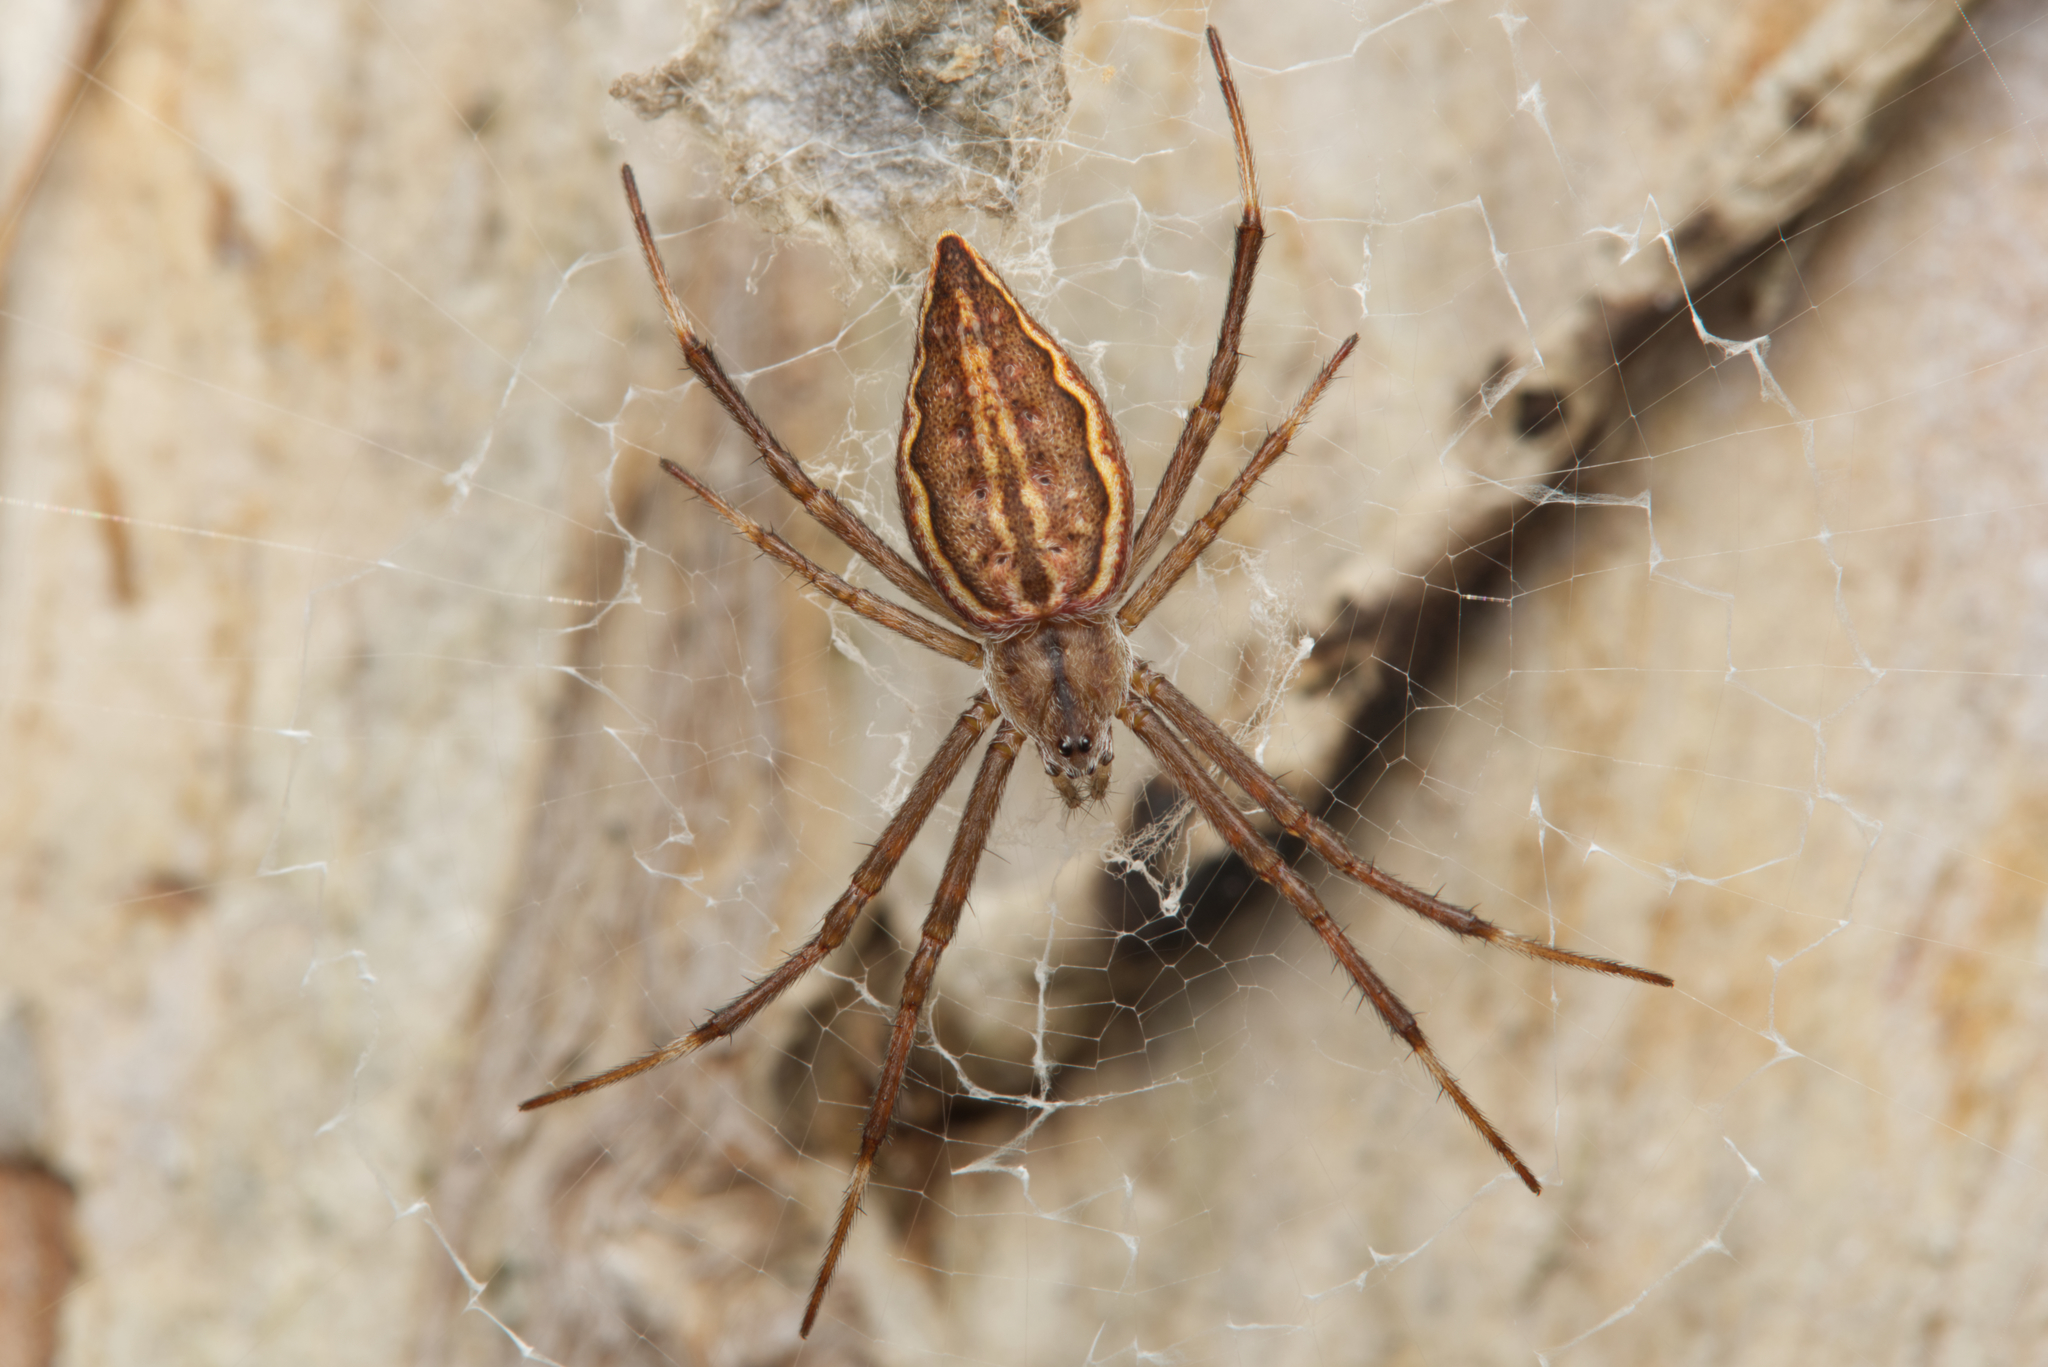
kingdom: Animalia
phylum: Arthropoda
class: Arachnida
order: Araneae
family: Araneidae
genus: Argiope
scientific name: Argiope ocyaloides
